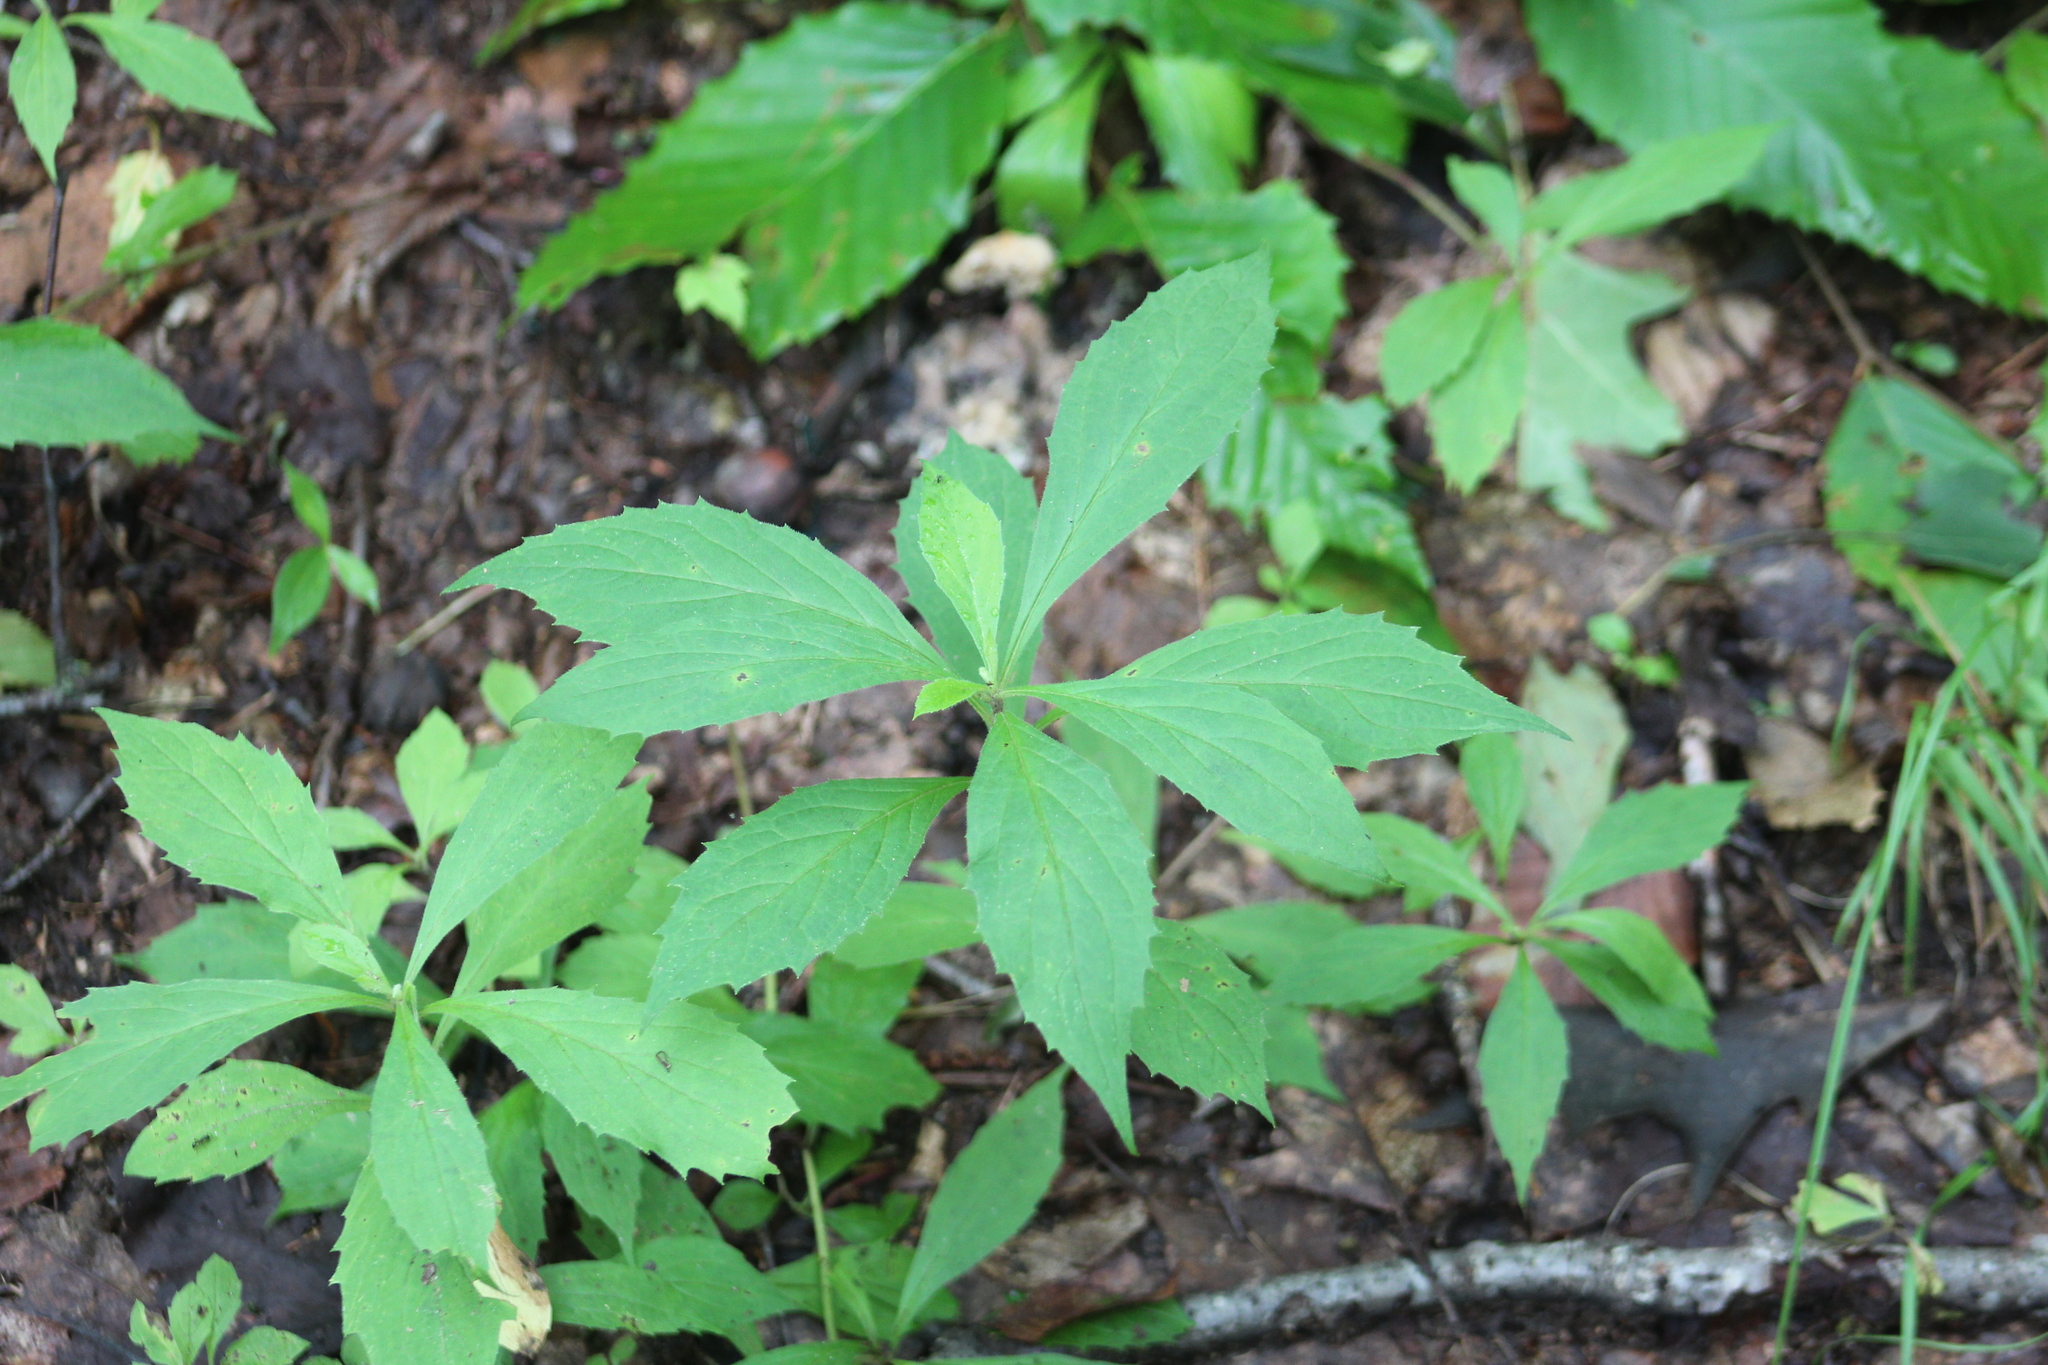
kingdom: Plantae
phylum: Tracheophyta
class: Magnoliopsida
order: Asterales
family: Asteraceae
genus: Oclemena
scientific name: Oclemena acuminata
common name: Mountain aster
